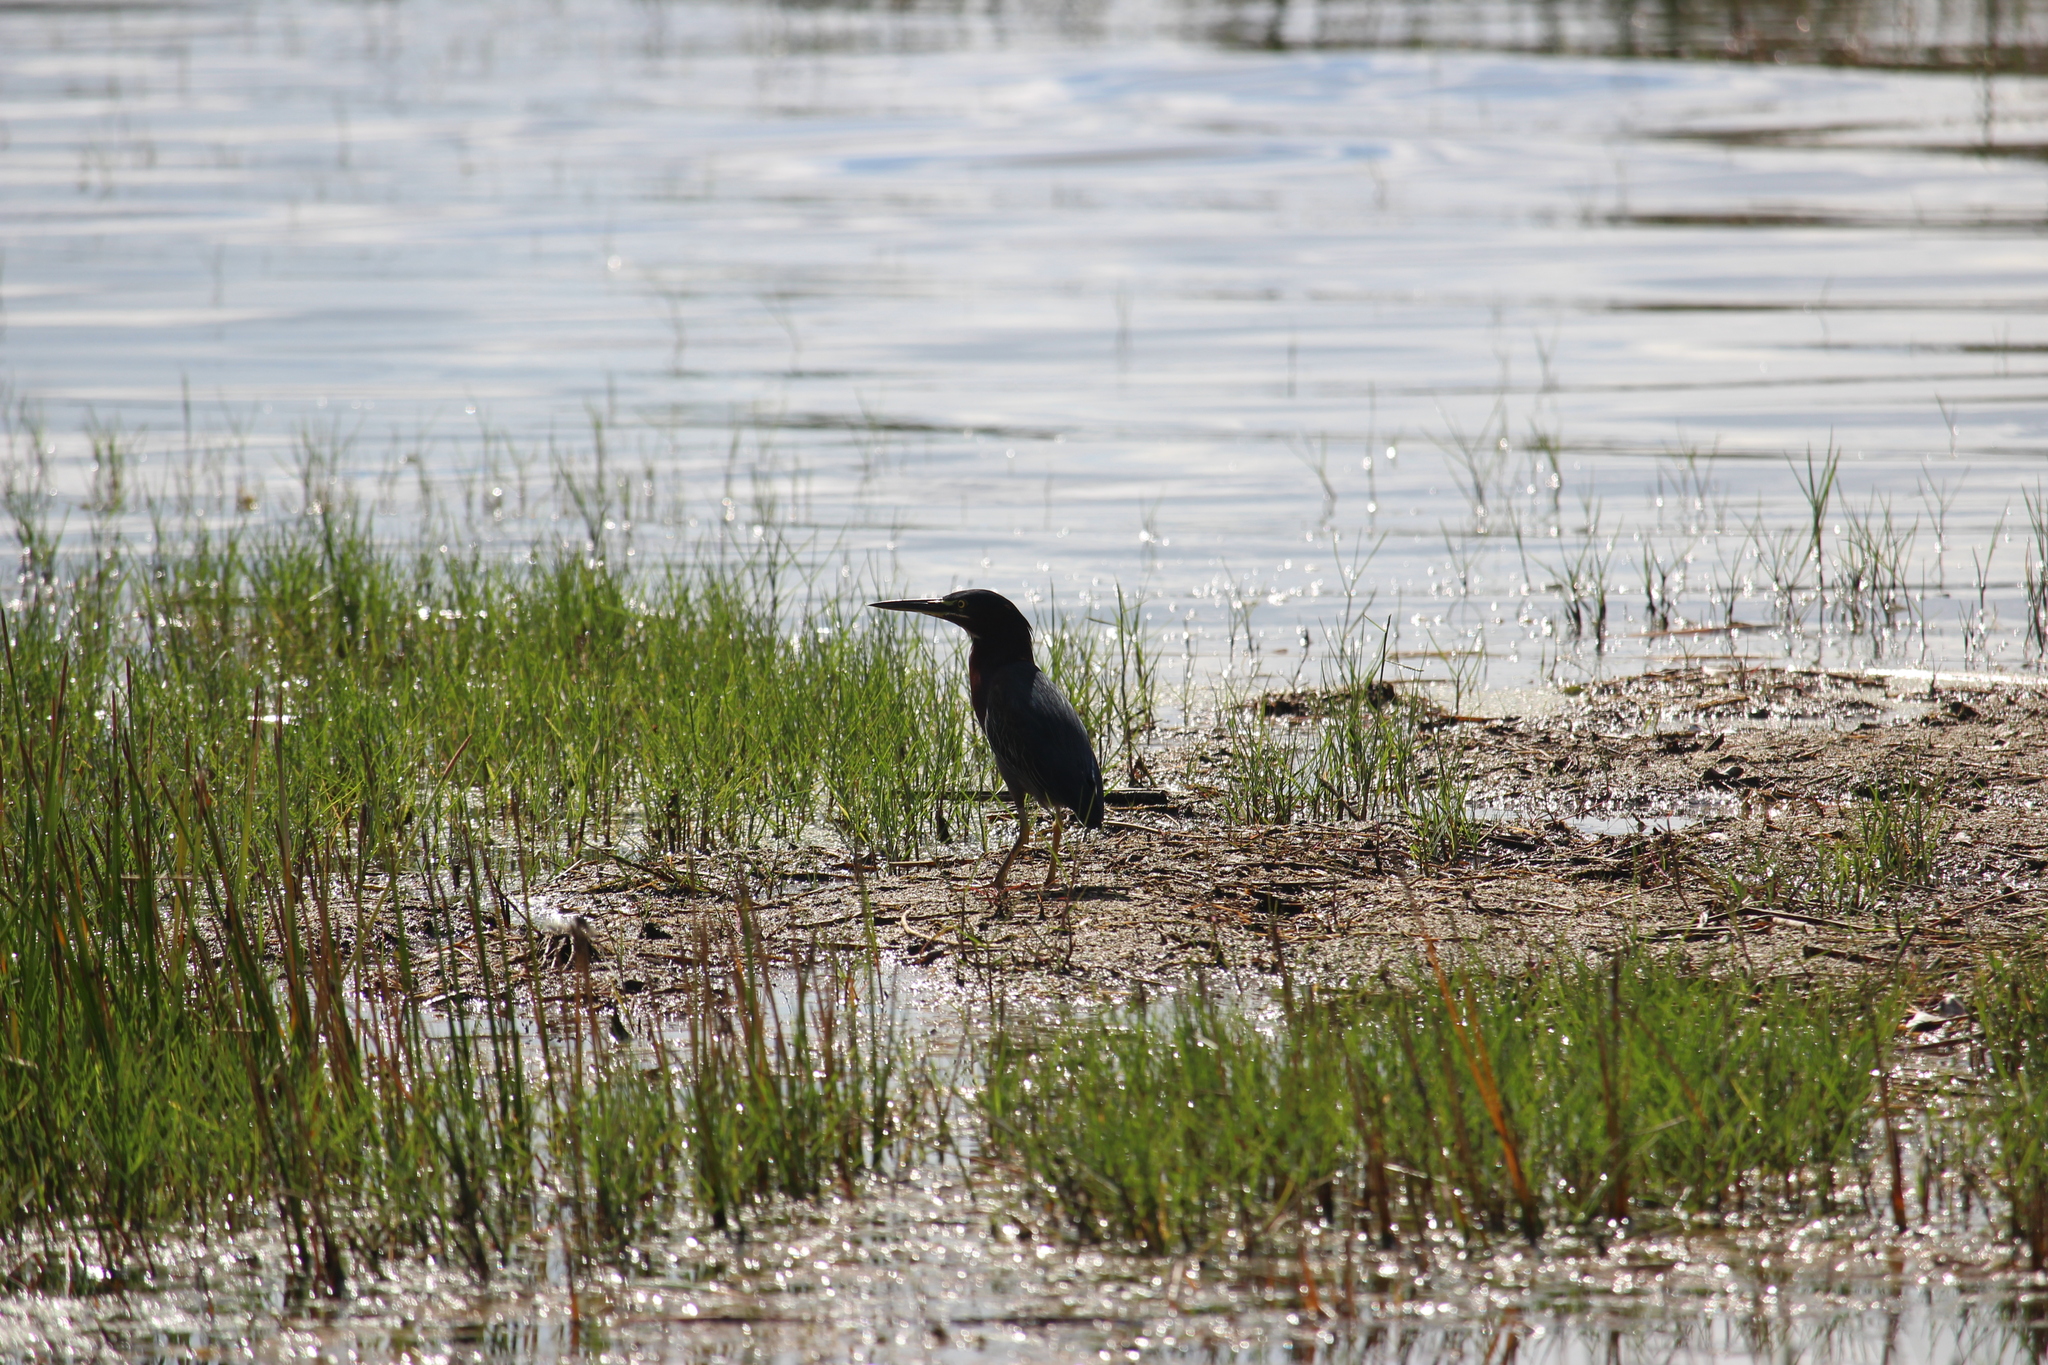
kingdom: Animalia
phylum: Chordata
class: Aves
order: Pelecaniformes
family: Ardeidae
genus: Butorides
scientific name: Butorides virescens
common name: Green heron
